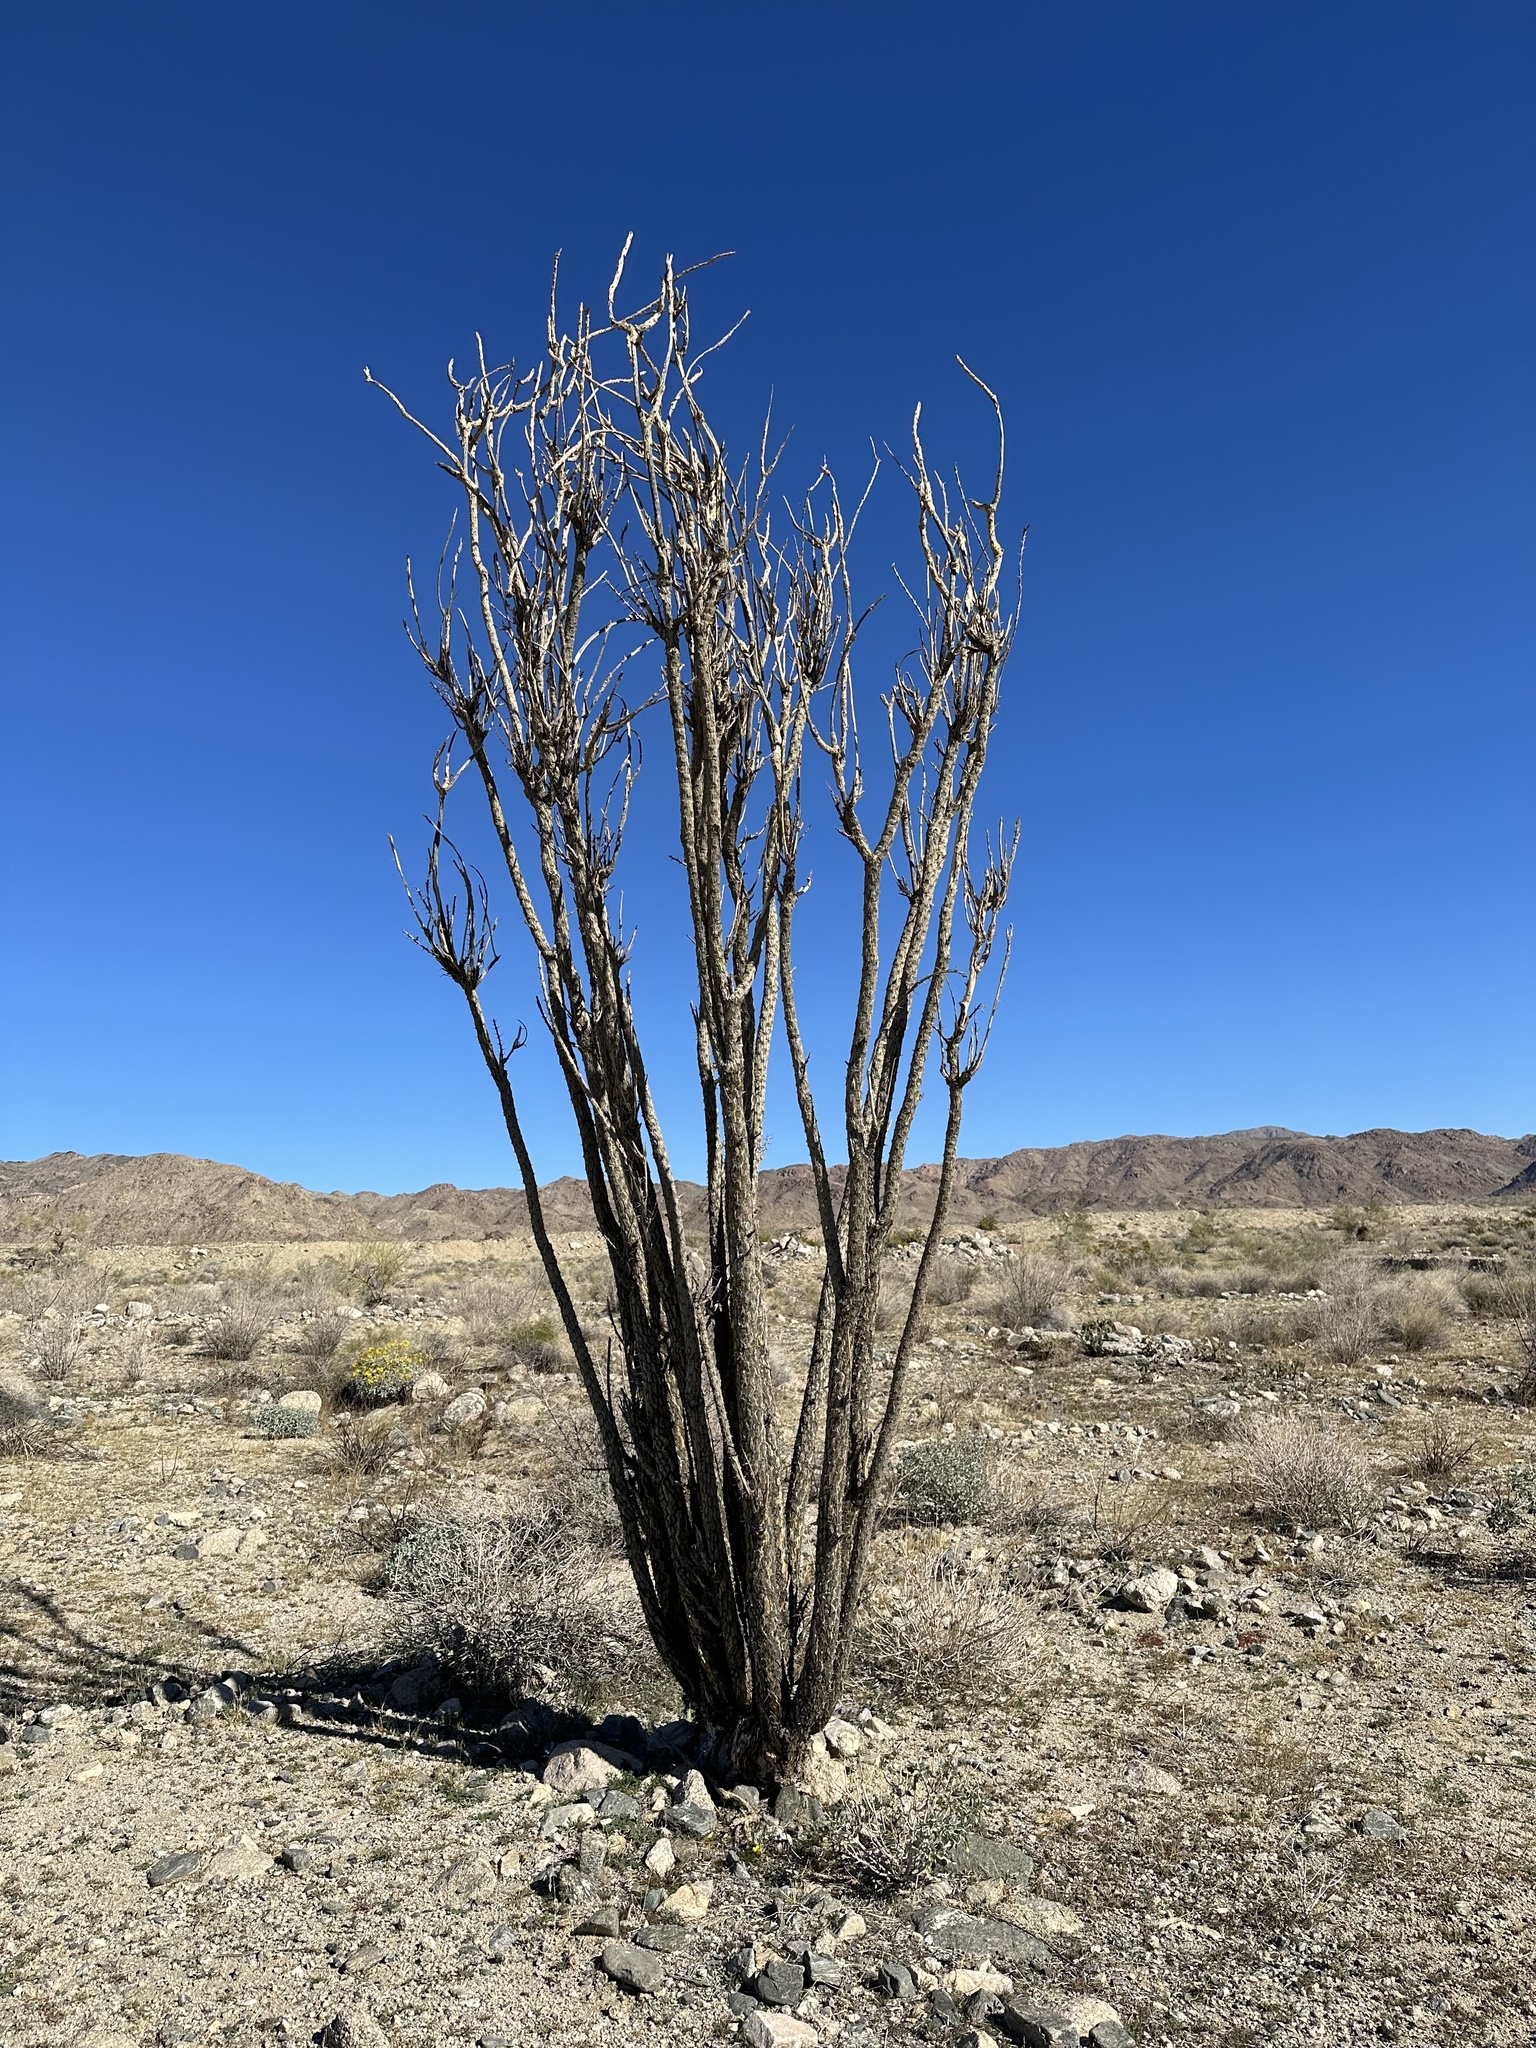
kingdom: Plantae
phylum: Tracheophyta
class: Magnoliopsida
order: Ericales
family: Fouquieriaceae
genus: Fouquieria
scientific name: Fouquieria splendens
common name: Vine-cactus
